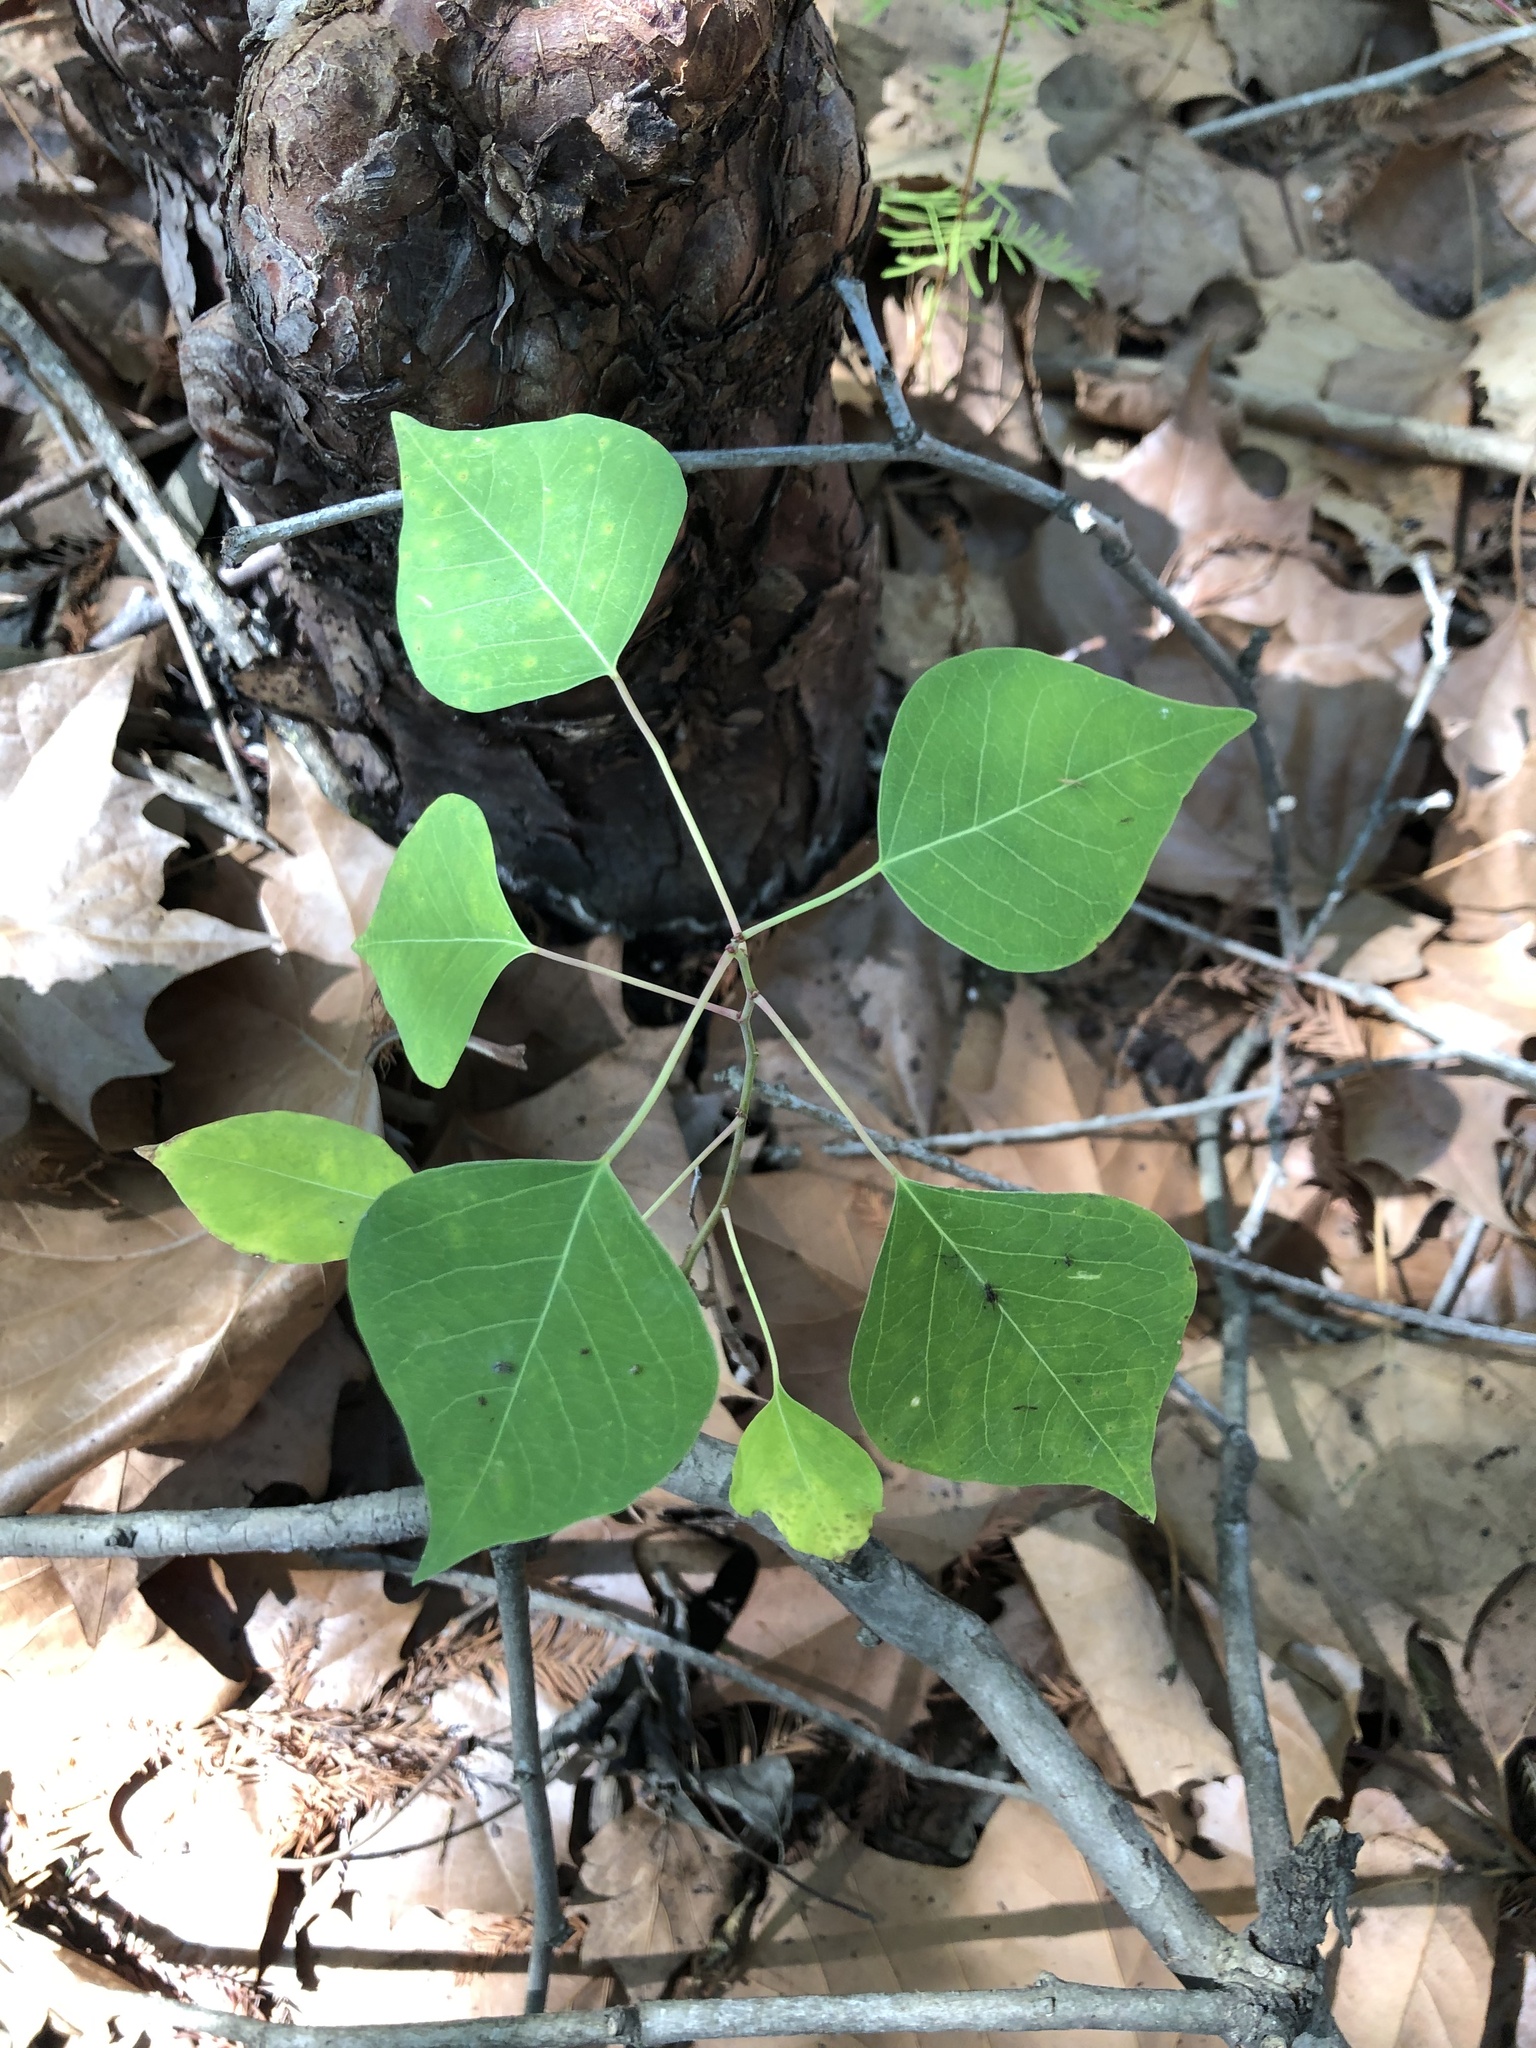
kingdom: Plantae
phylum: Tracheophyta
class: Magnoliopsida
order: Malpighiales
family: Euphorbiaceae
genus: Triadica
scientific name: Triadica sebifera
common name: Chinese tallow
